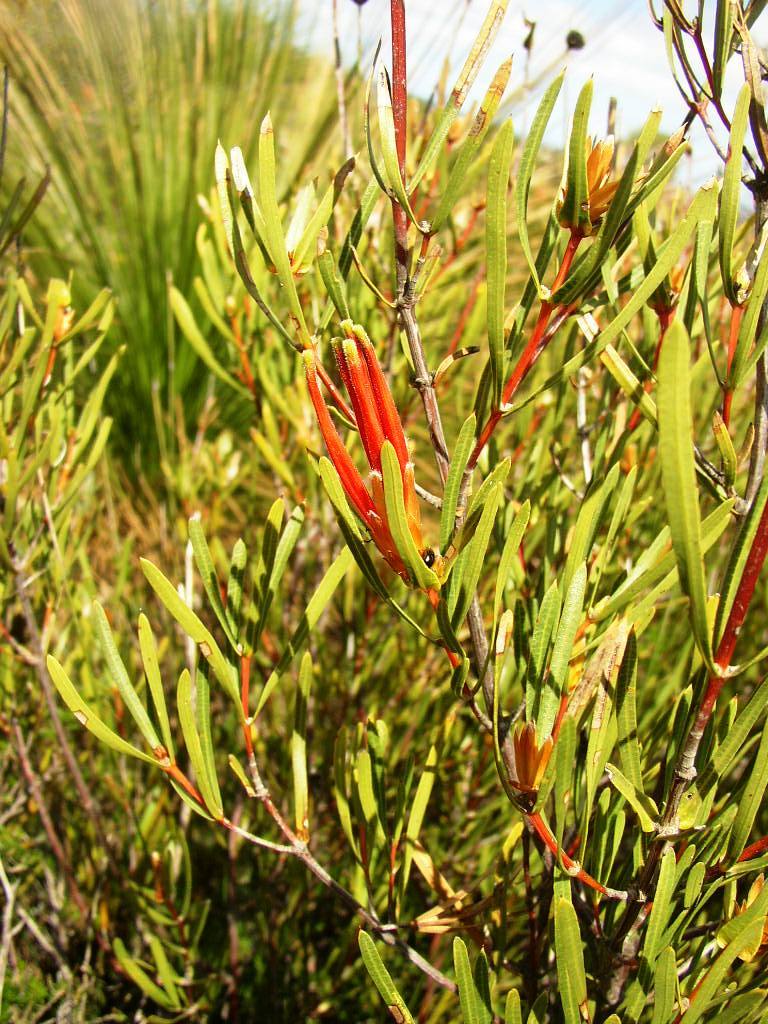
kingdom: Plantae
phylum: Tracheophyta
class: Magnoliopsida
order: Proteales
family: Proteaceae
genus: Lambertia
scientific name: Lambertia multiflora
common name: Many-flowered honeysuckle
